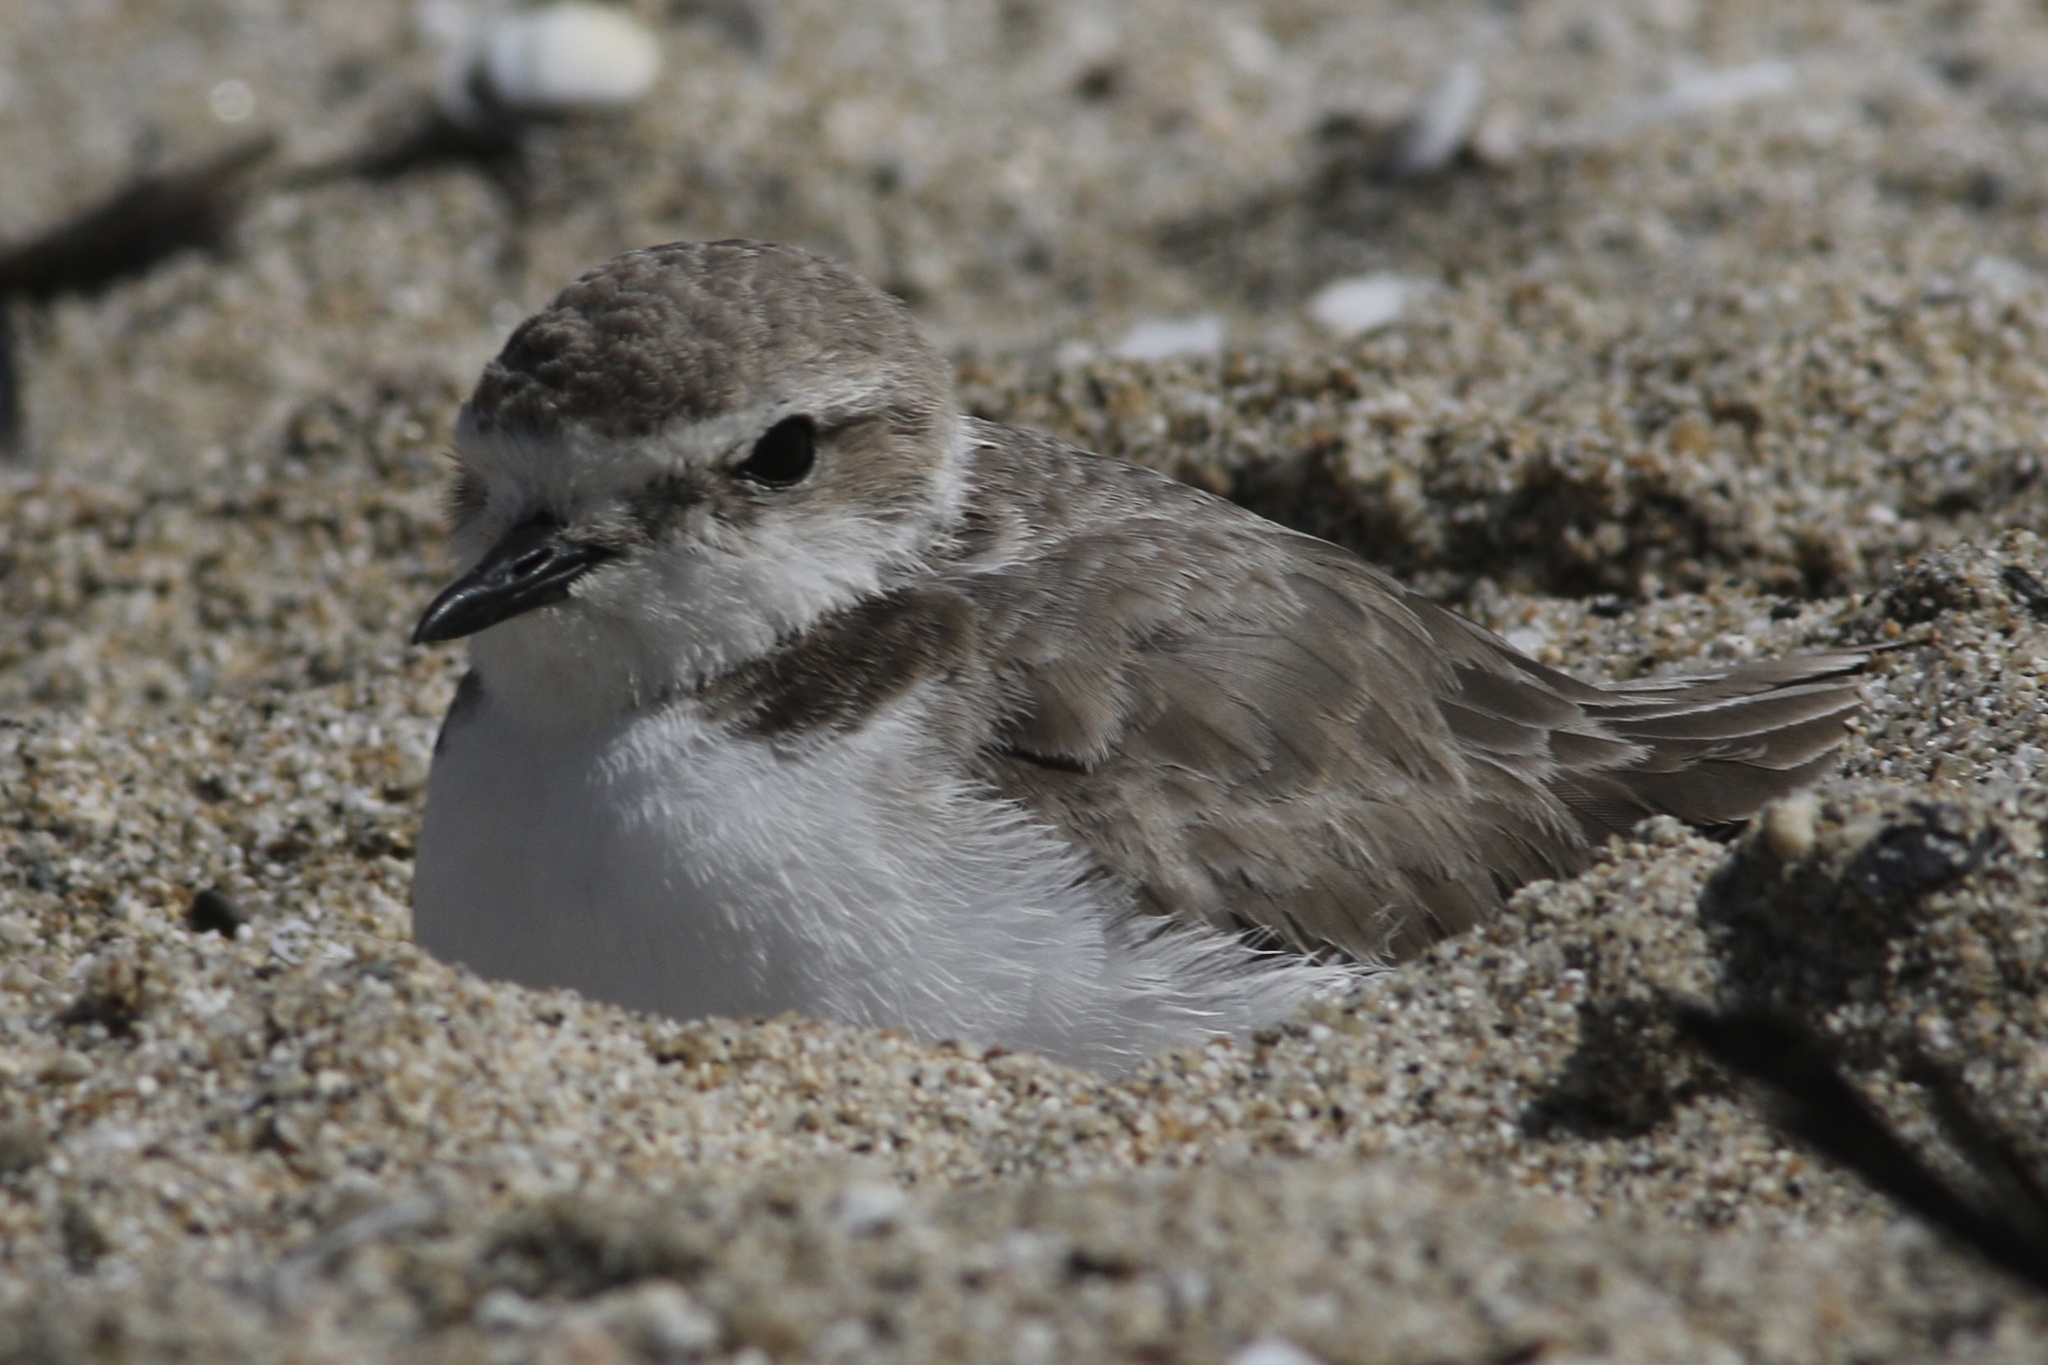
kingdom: Animalia
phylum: Chordata
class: Aves
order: Charadriiformes
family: Charadriidae
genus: Anarhynchus
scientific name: Anarhynchus
